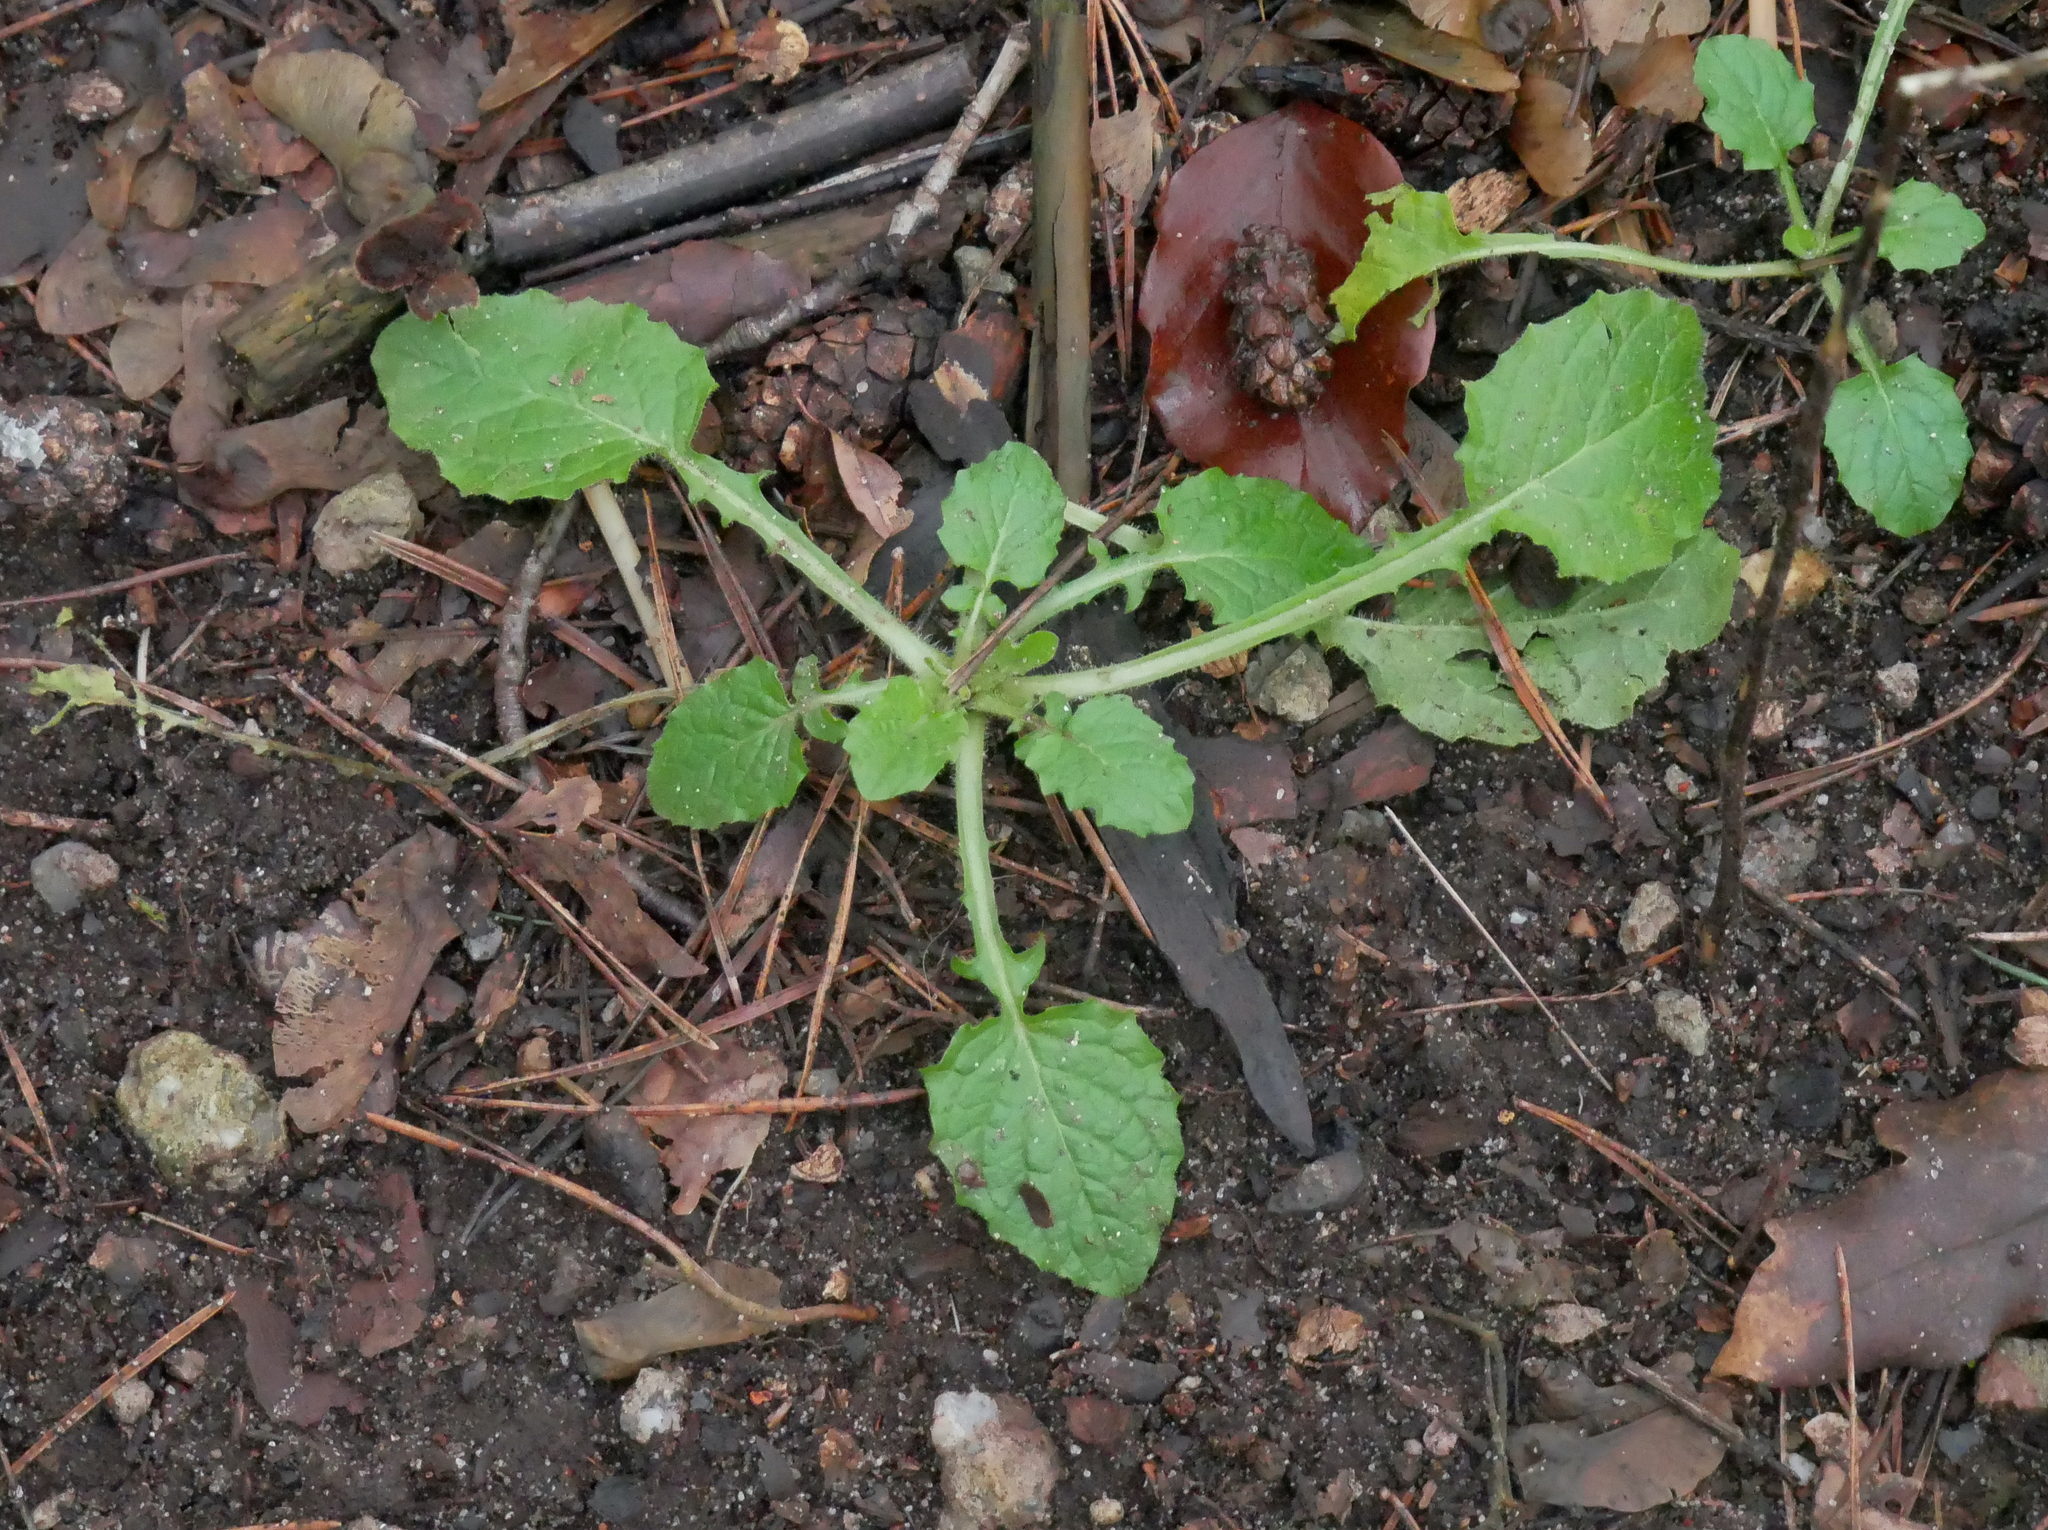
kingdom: Plantae
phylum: Tracheophyta
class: Magnoliopsida
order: Asterales
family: Asteraceae
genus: Lapsana
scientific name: Lapsana communis
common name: Nipplewort
